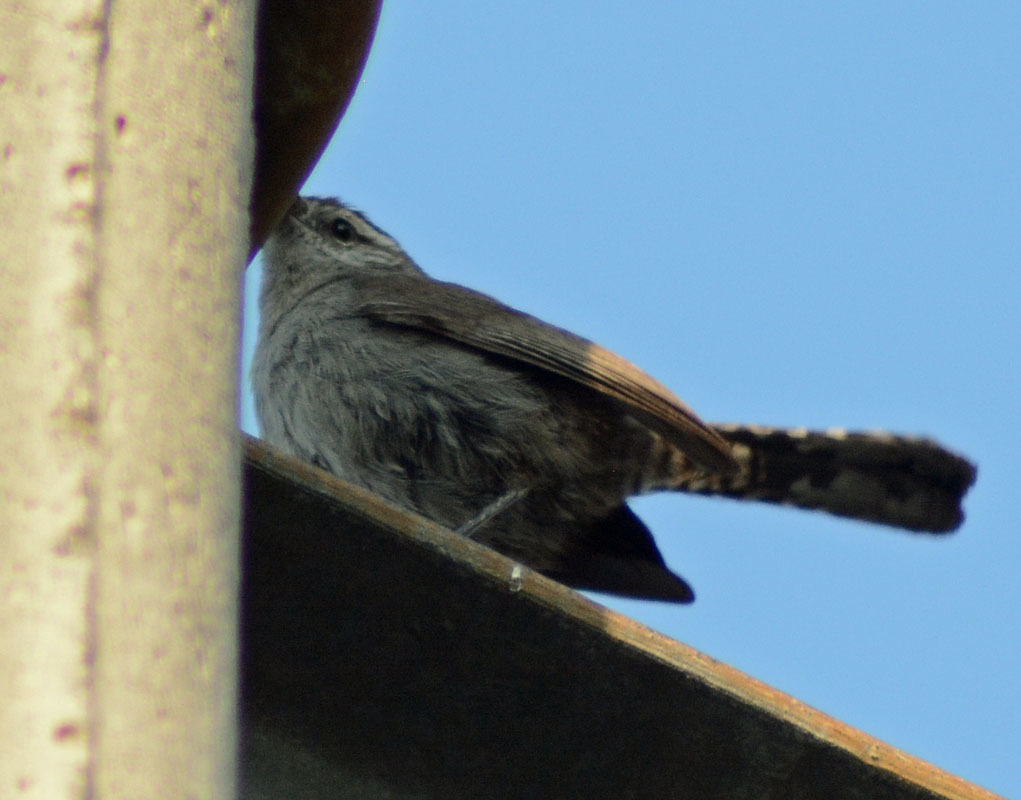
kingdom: Animalia
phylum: Chordata
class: Aves
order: Passeriformes
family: Troglodytidae
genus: Thryomanes
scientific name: Thryomanes bewickii
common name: Bewick's wren
